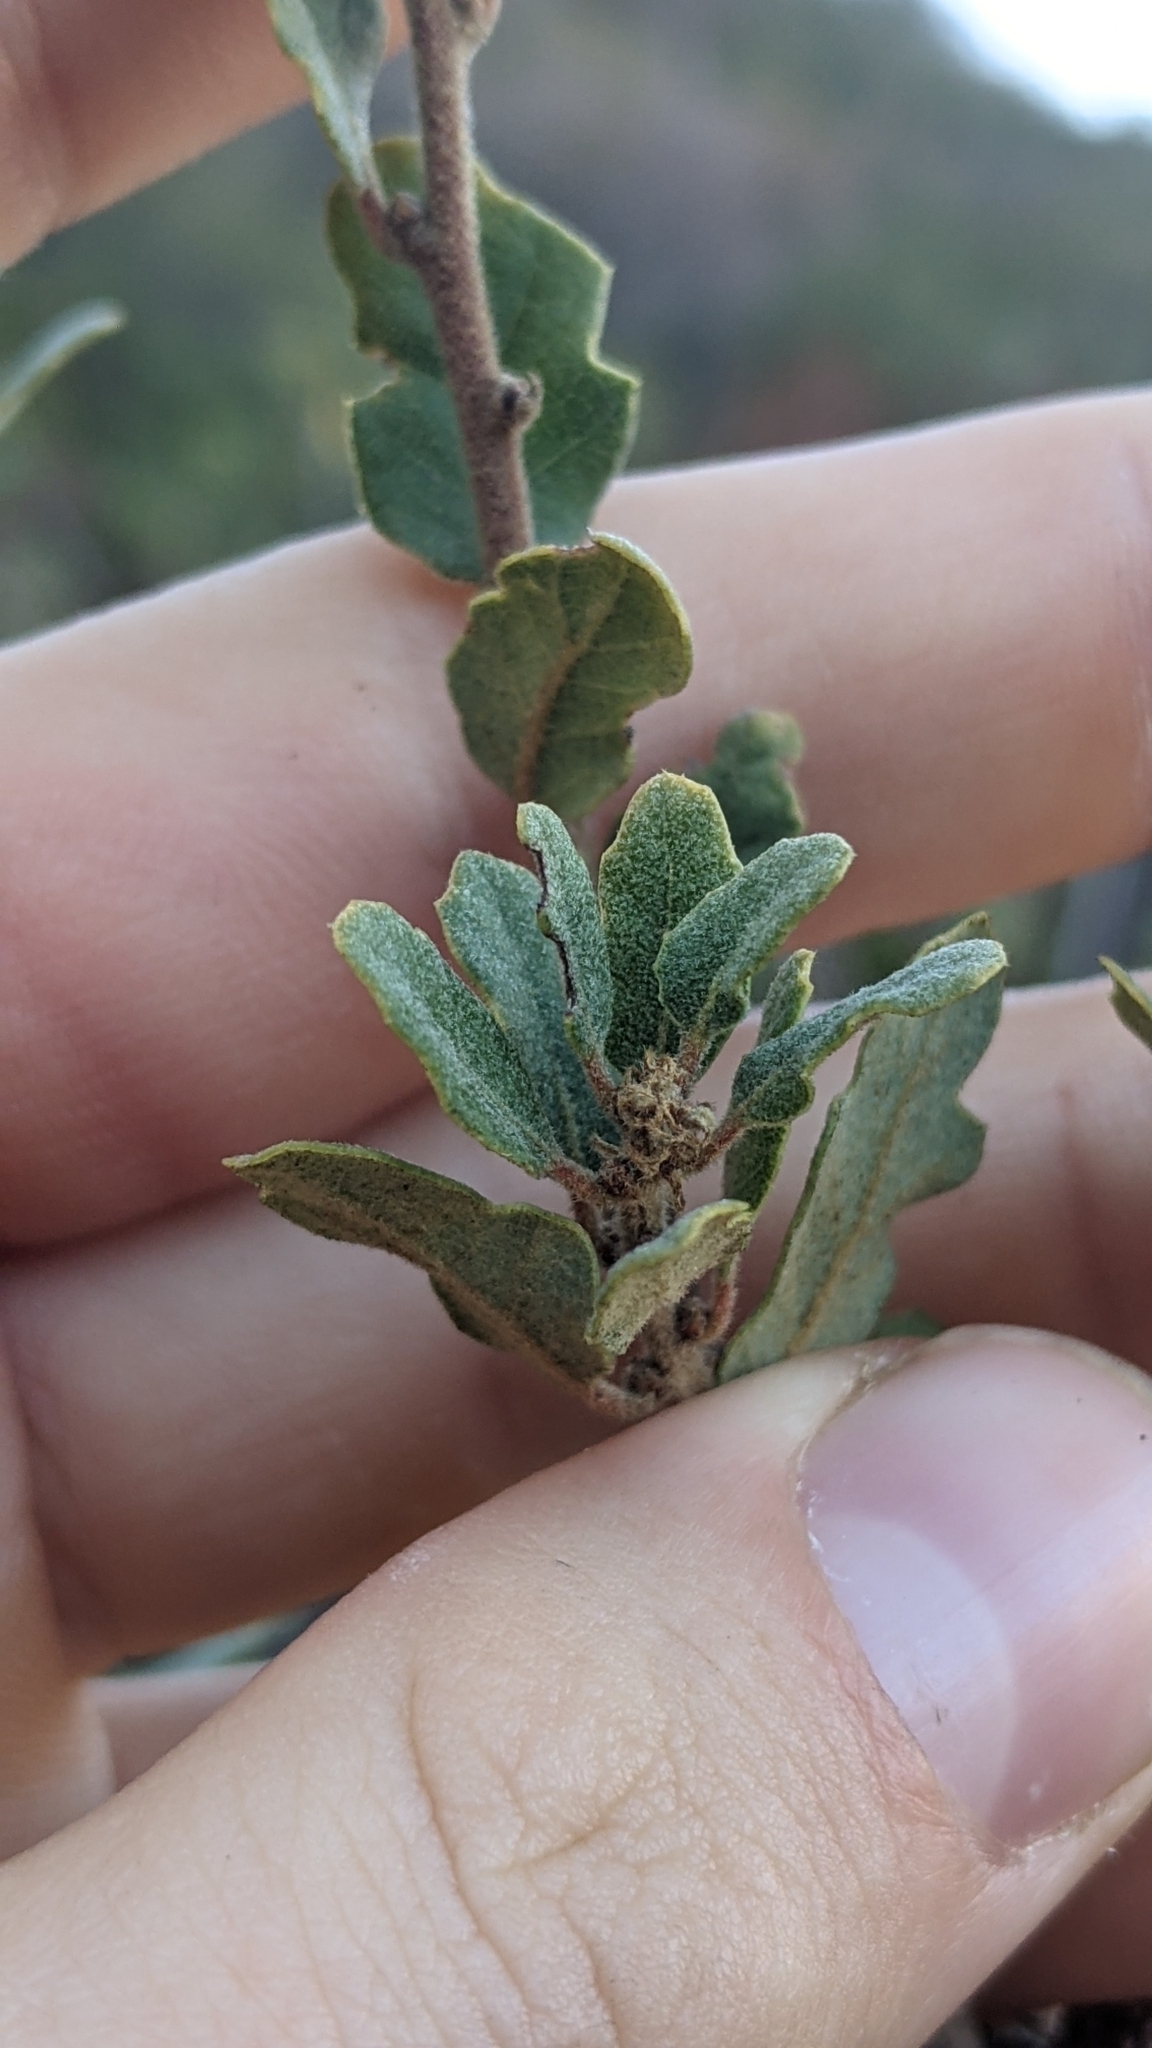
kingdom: Plantae
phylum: Tracheophyta
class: Magnoliopsida
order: Fagales
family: Fagaceae
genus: Quercus
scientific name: Quercus berberidifolia
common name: California scrub oak
